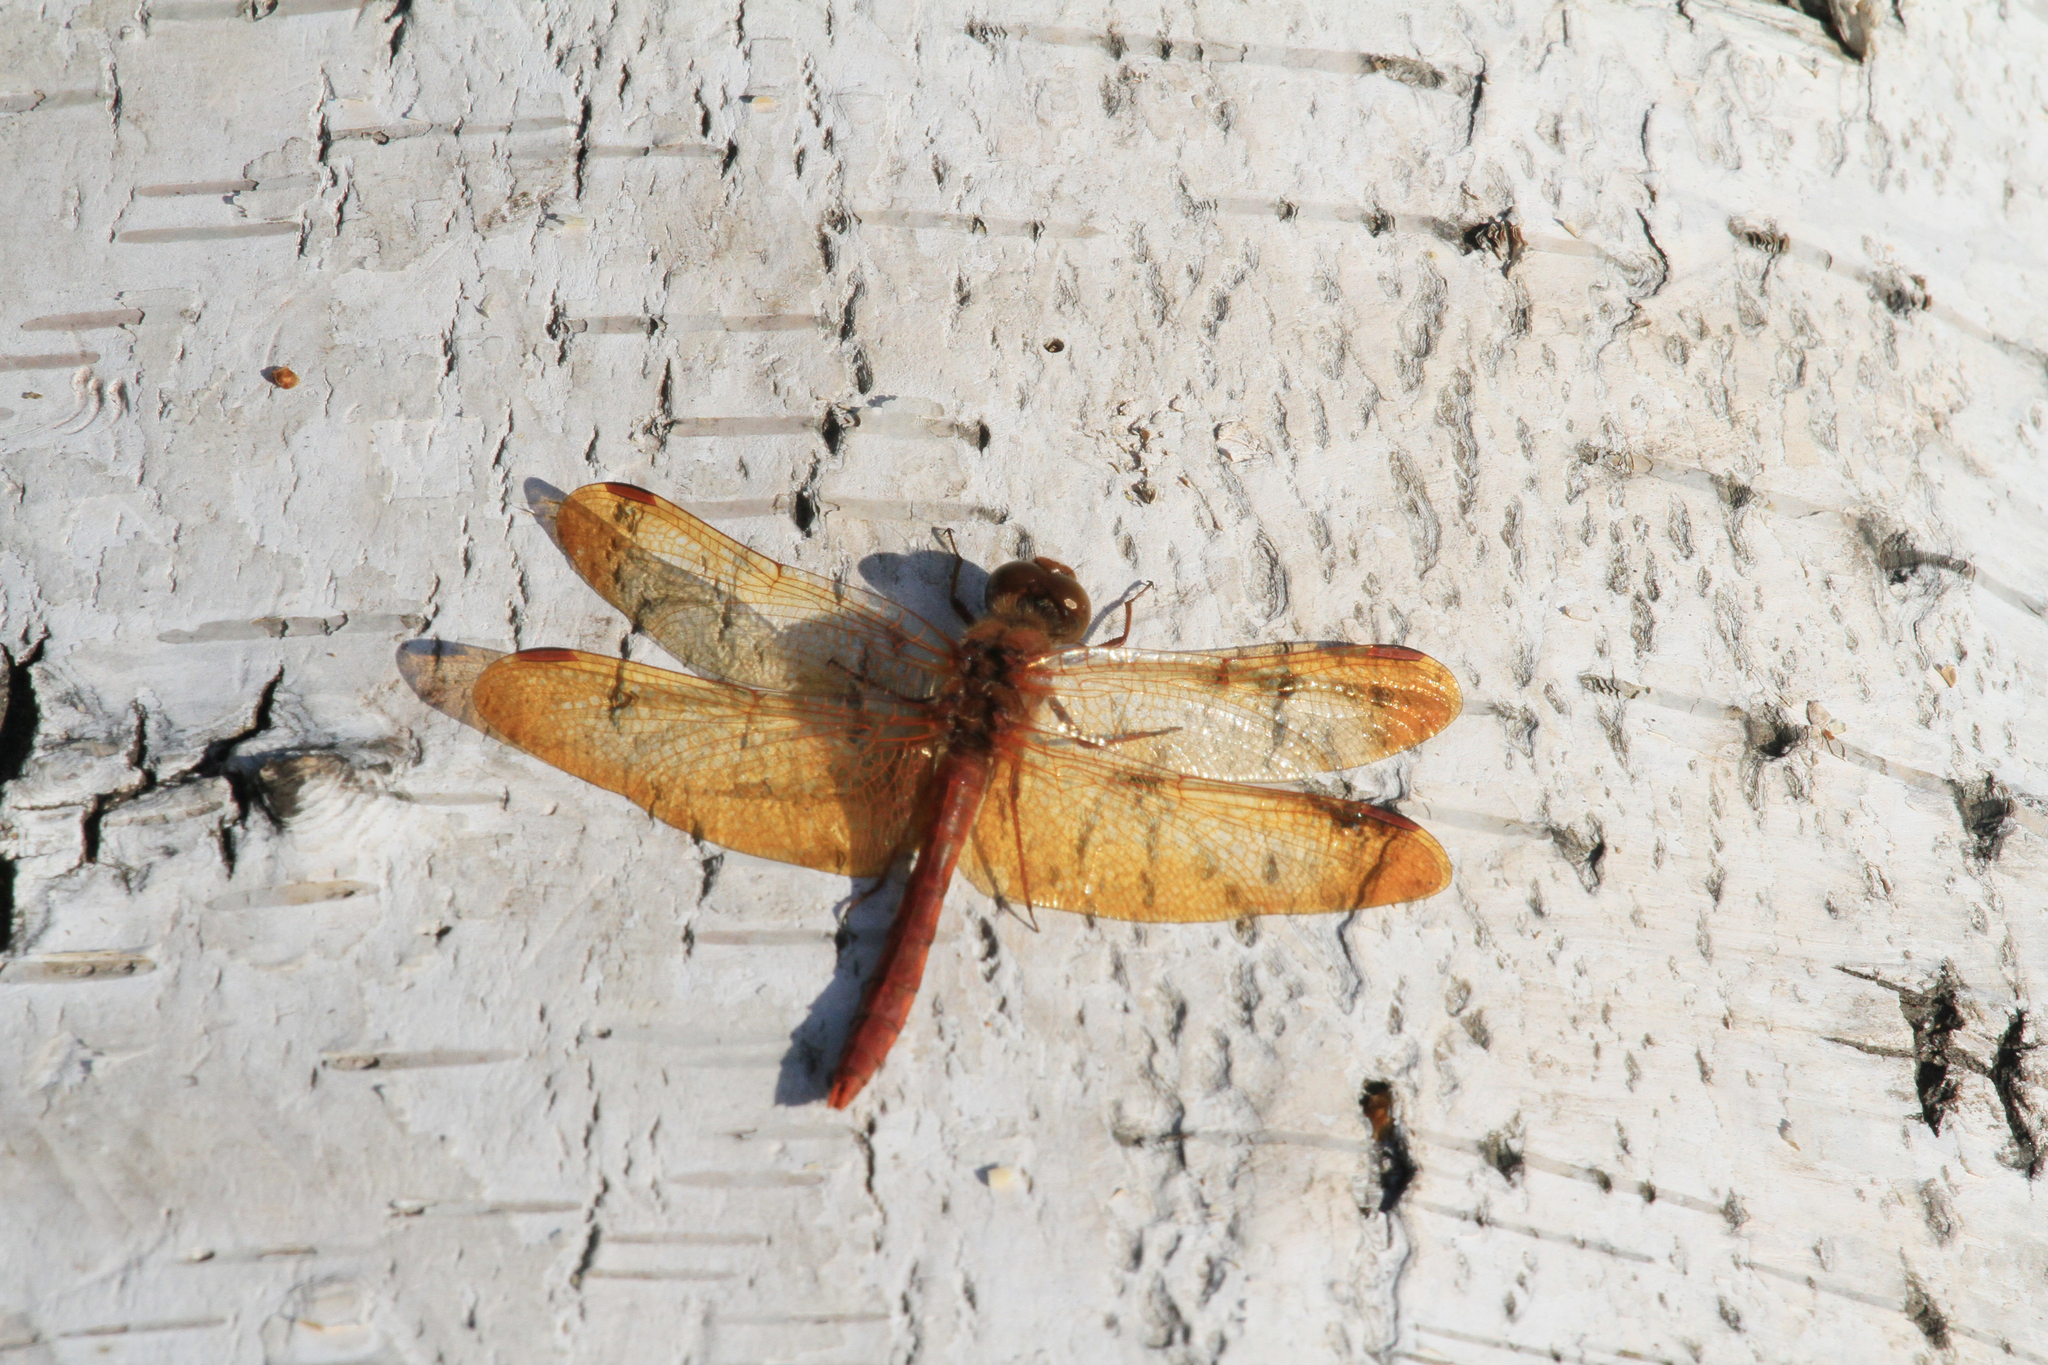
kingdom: Animalia
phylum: Arthropoda
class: Insecta
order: Odonata
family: Libellulidae
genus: Sympetrum
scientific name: Sympetrum croceolum
